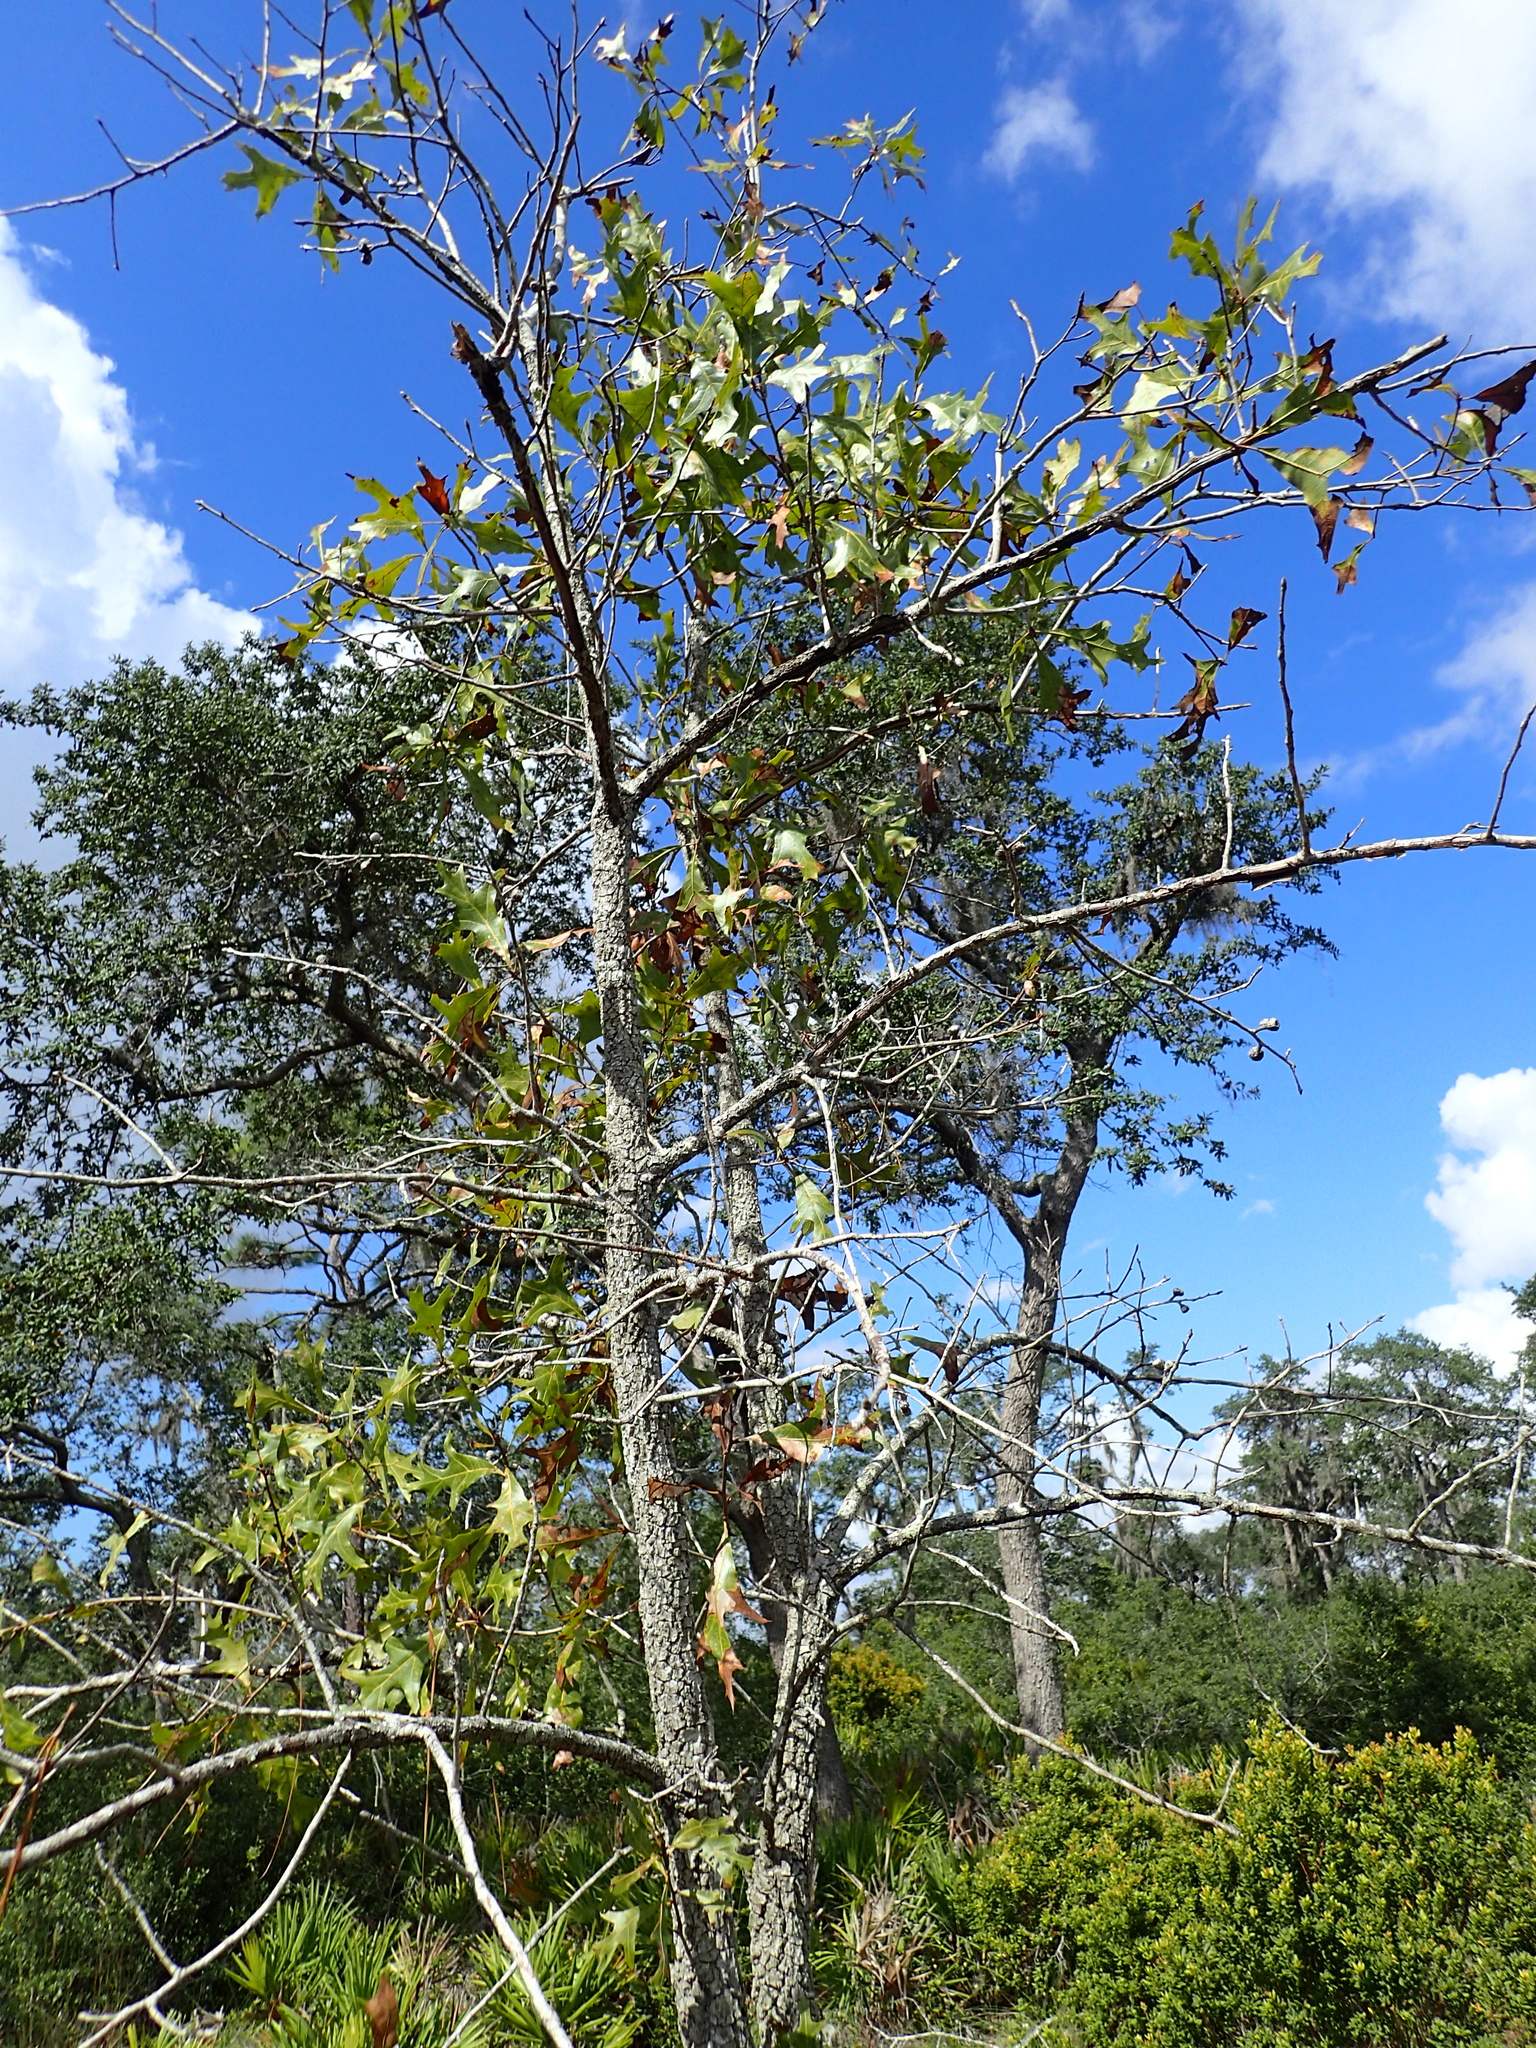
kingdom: Plantae
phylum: Tracheophyta
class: Magnoliopsida
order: Fagales
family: Fagaceae
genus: Quercus
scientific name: Quercus laevis
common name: Turkey oak
